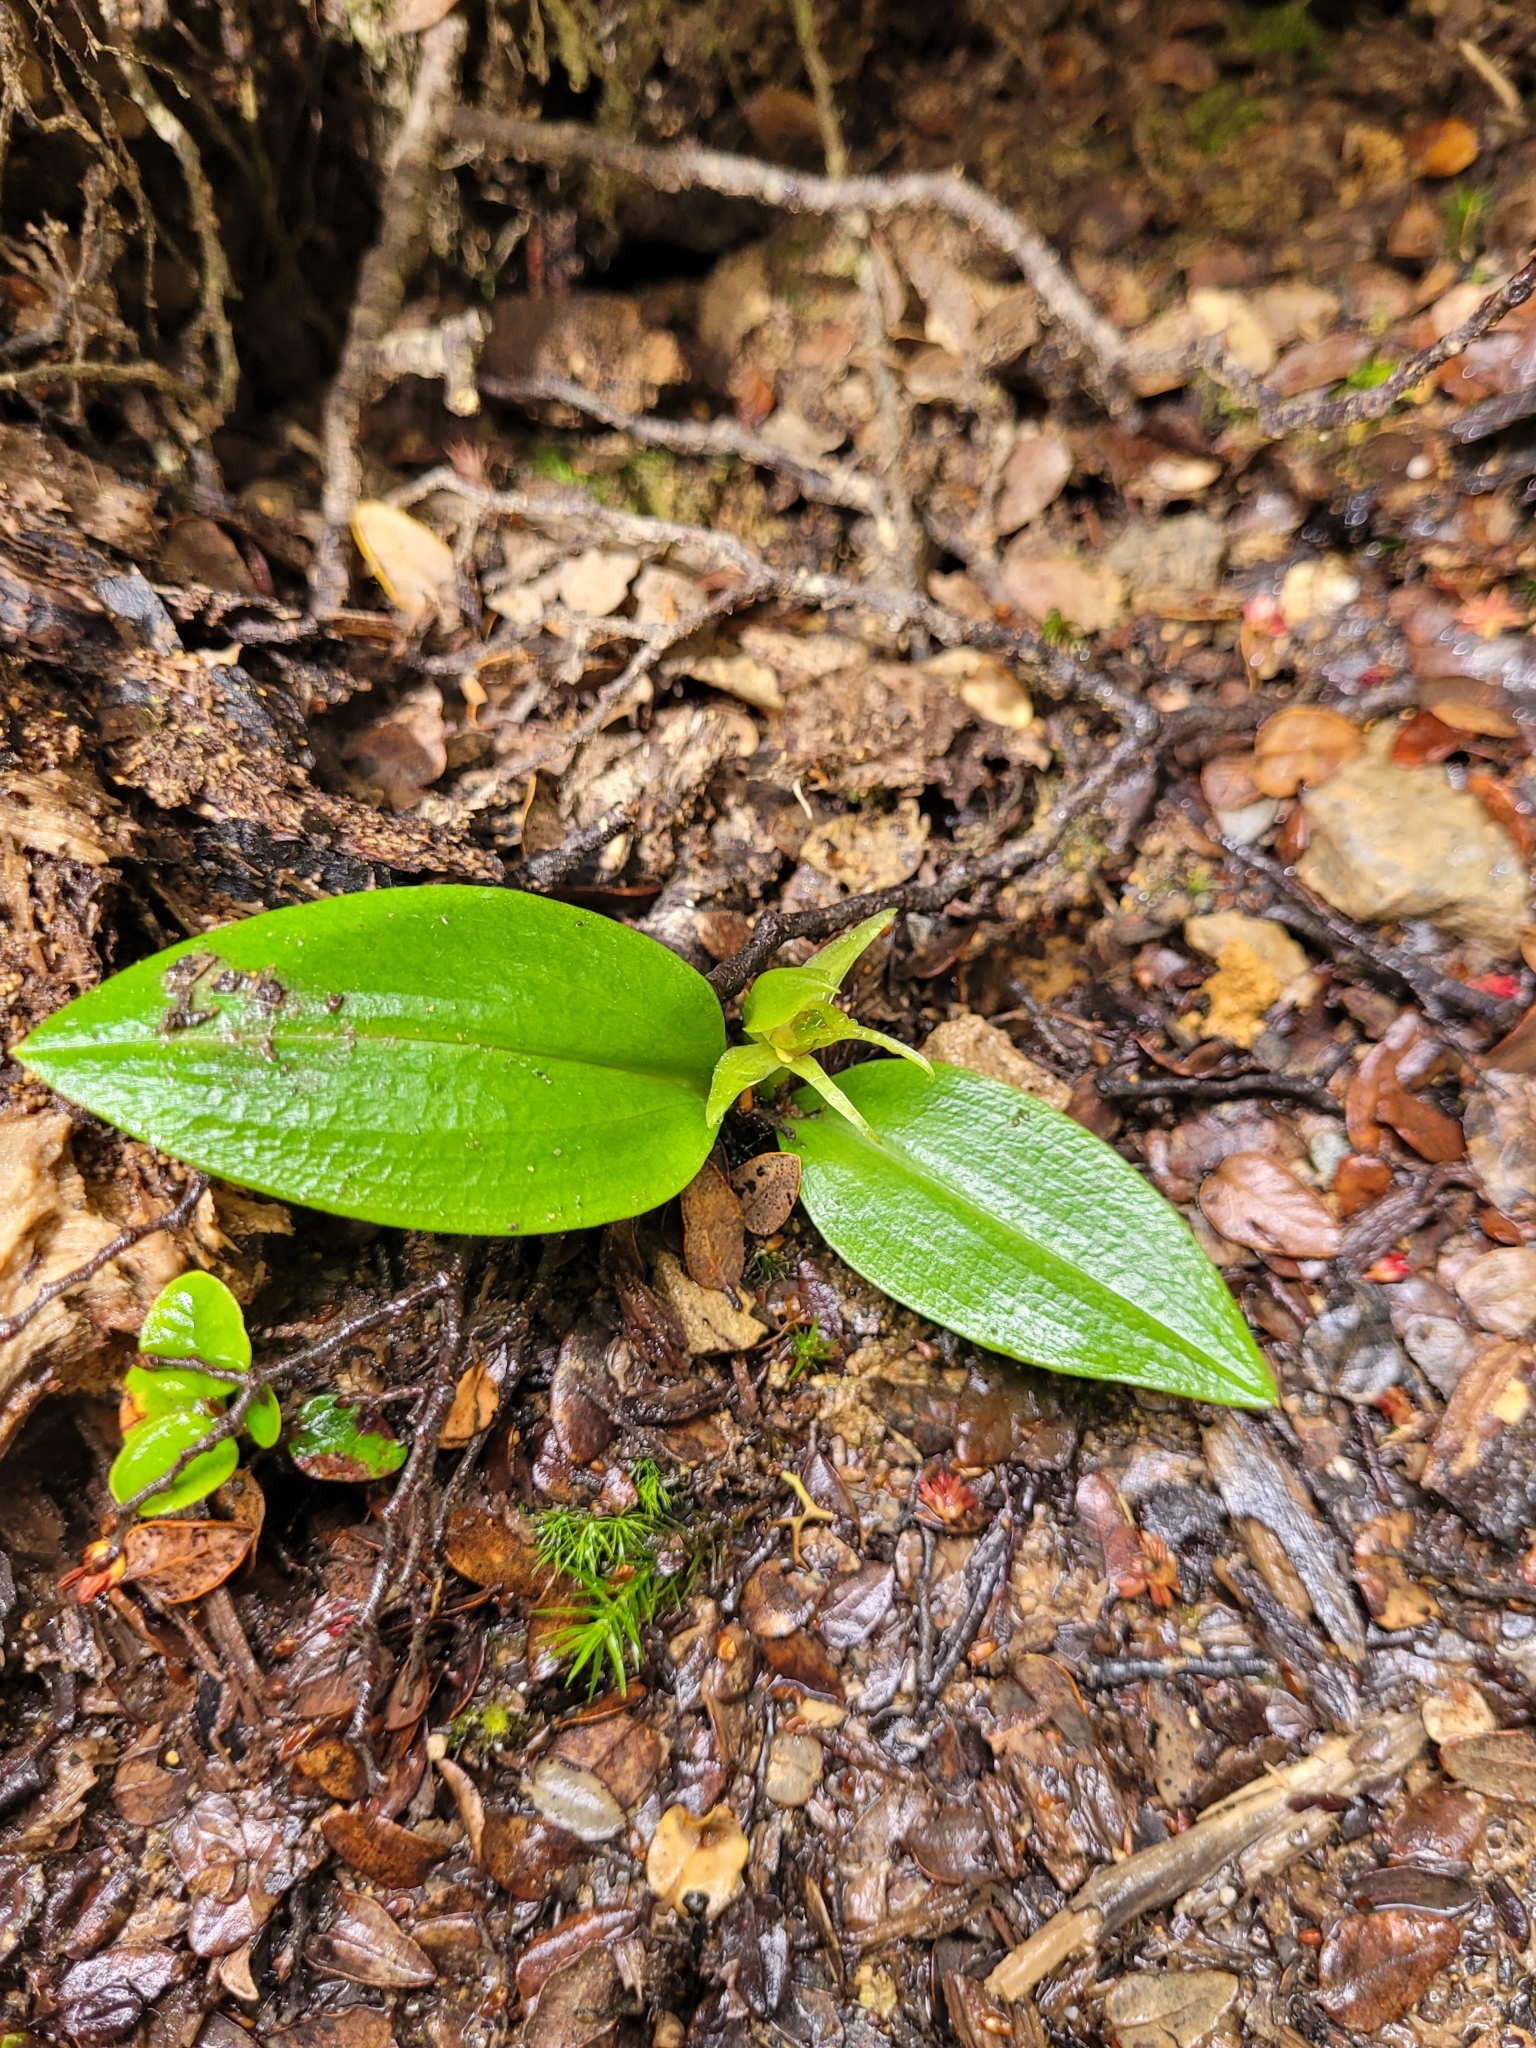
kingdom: Plantae
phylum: Tracheophyta
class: Liliopsida
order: Asparagales
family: Orchidaceae
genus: Chiloglottis
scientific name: Chiloglottis cornuta
